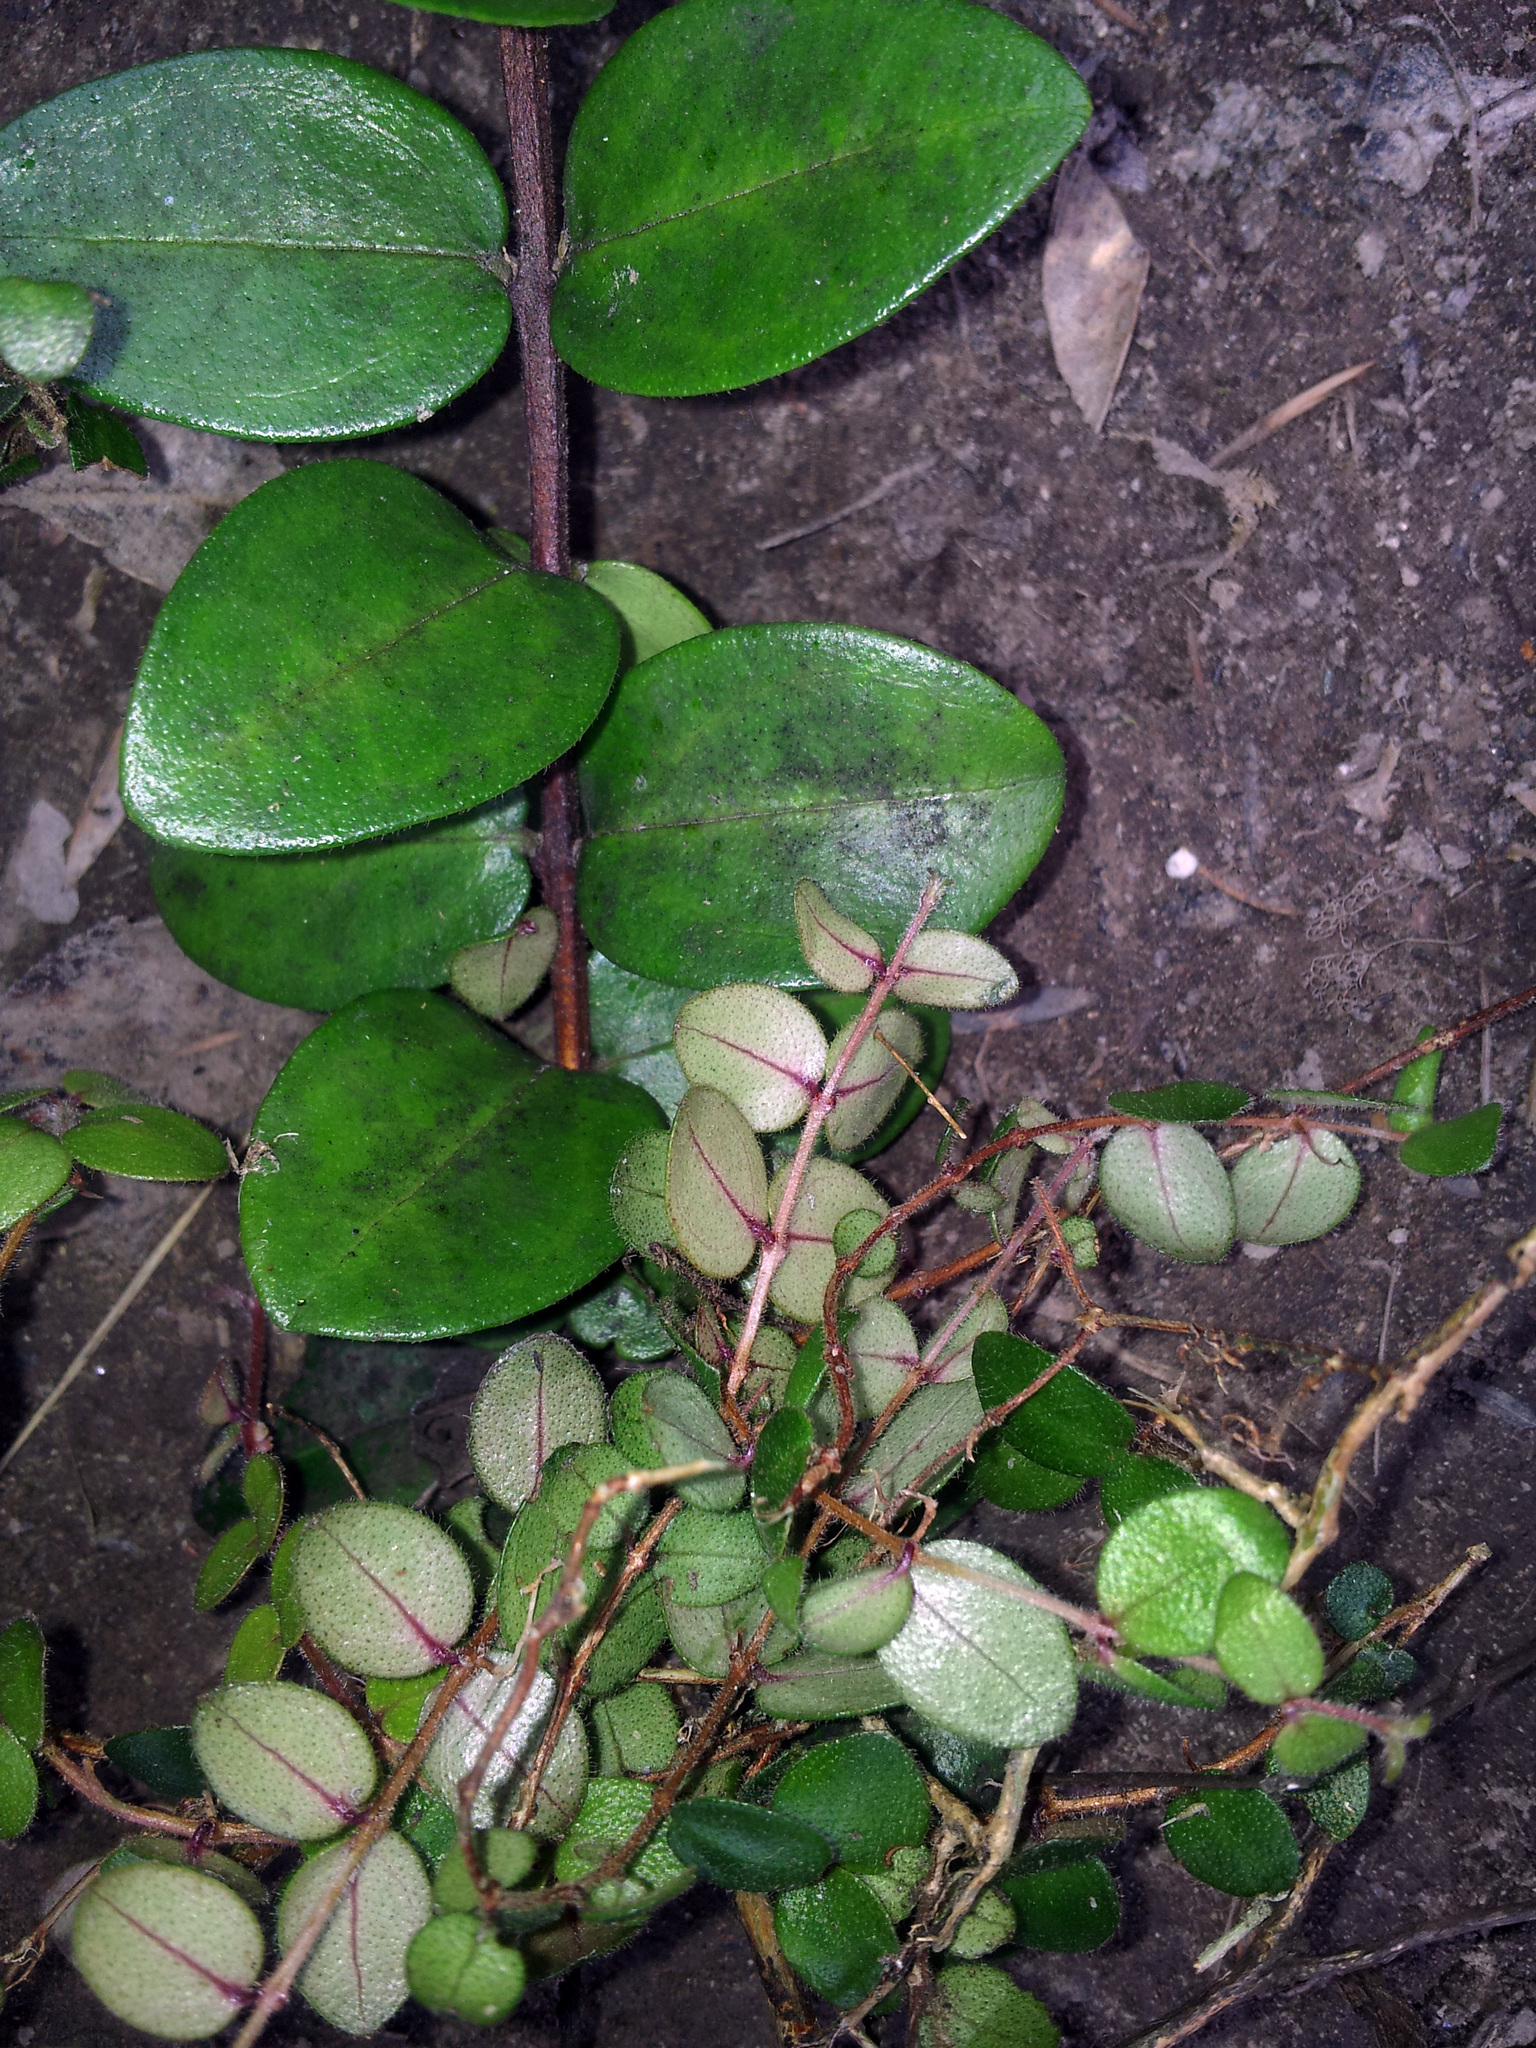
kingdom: Plantae
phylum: Tracheophyta
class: Magnoliopsida
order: Myrtales
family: Myrtaceae
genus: Metrosideros
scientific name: Metrosideros carminea
